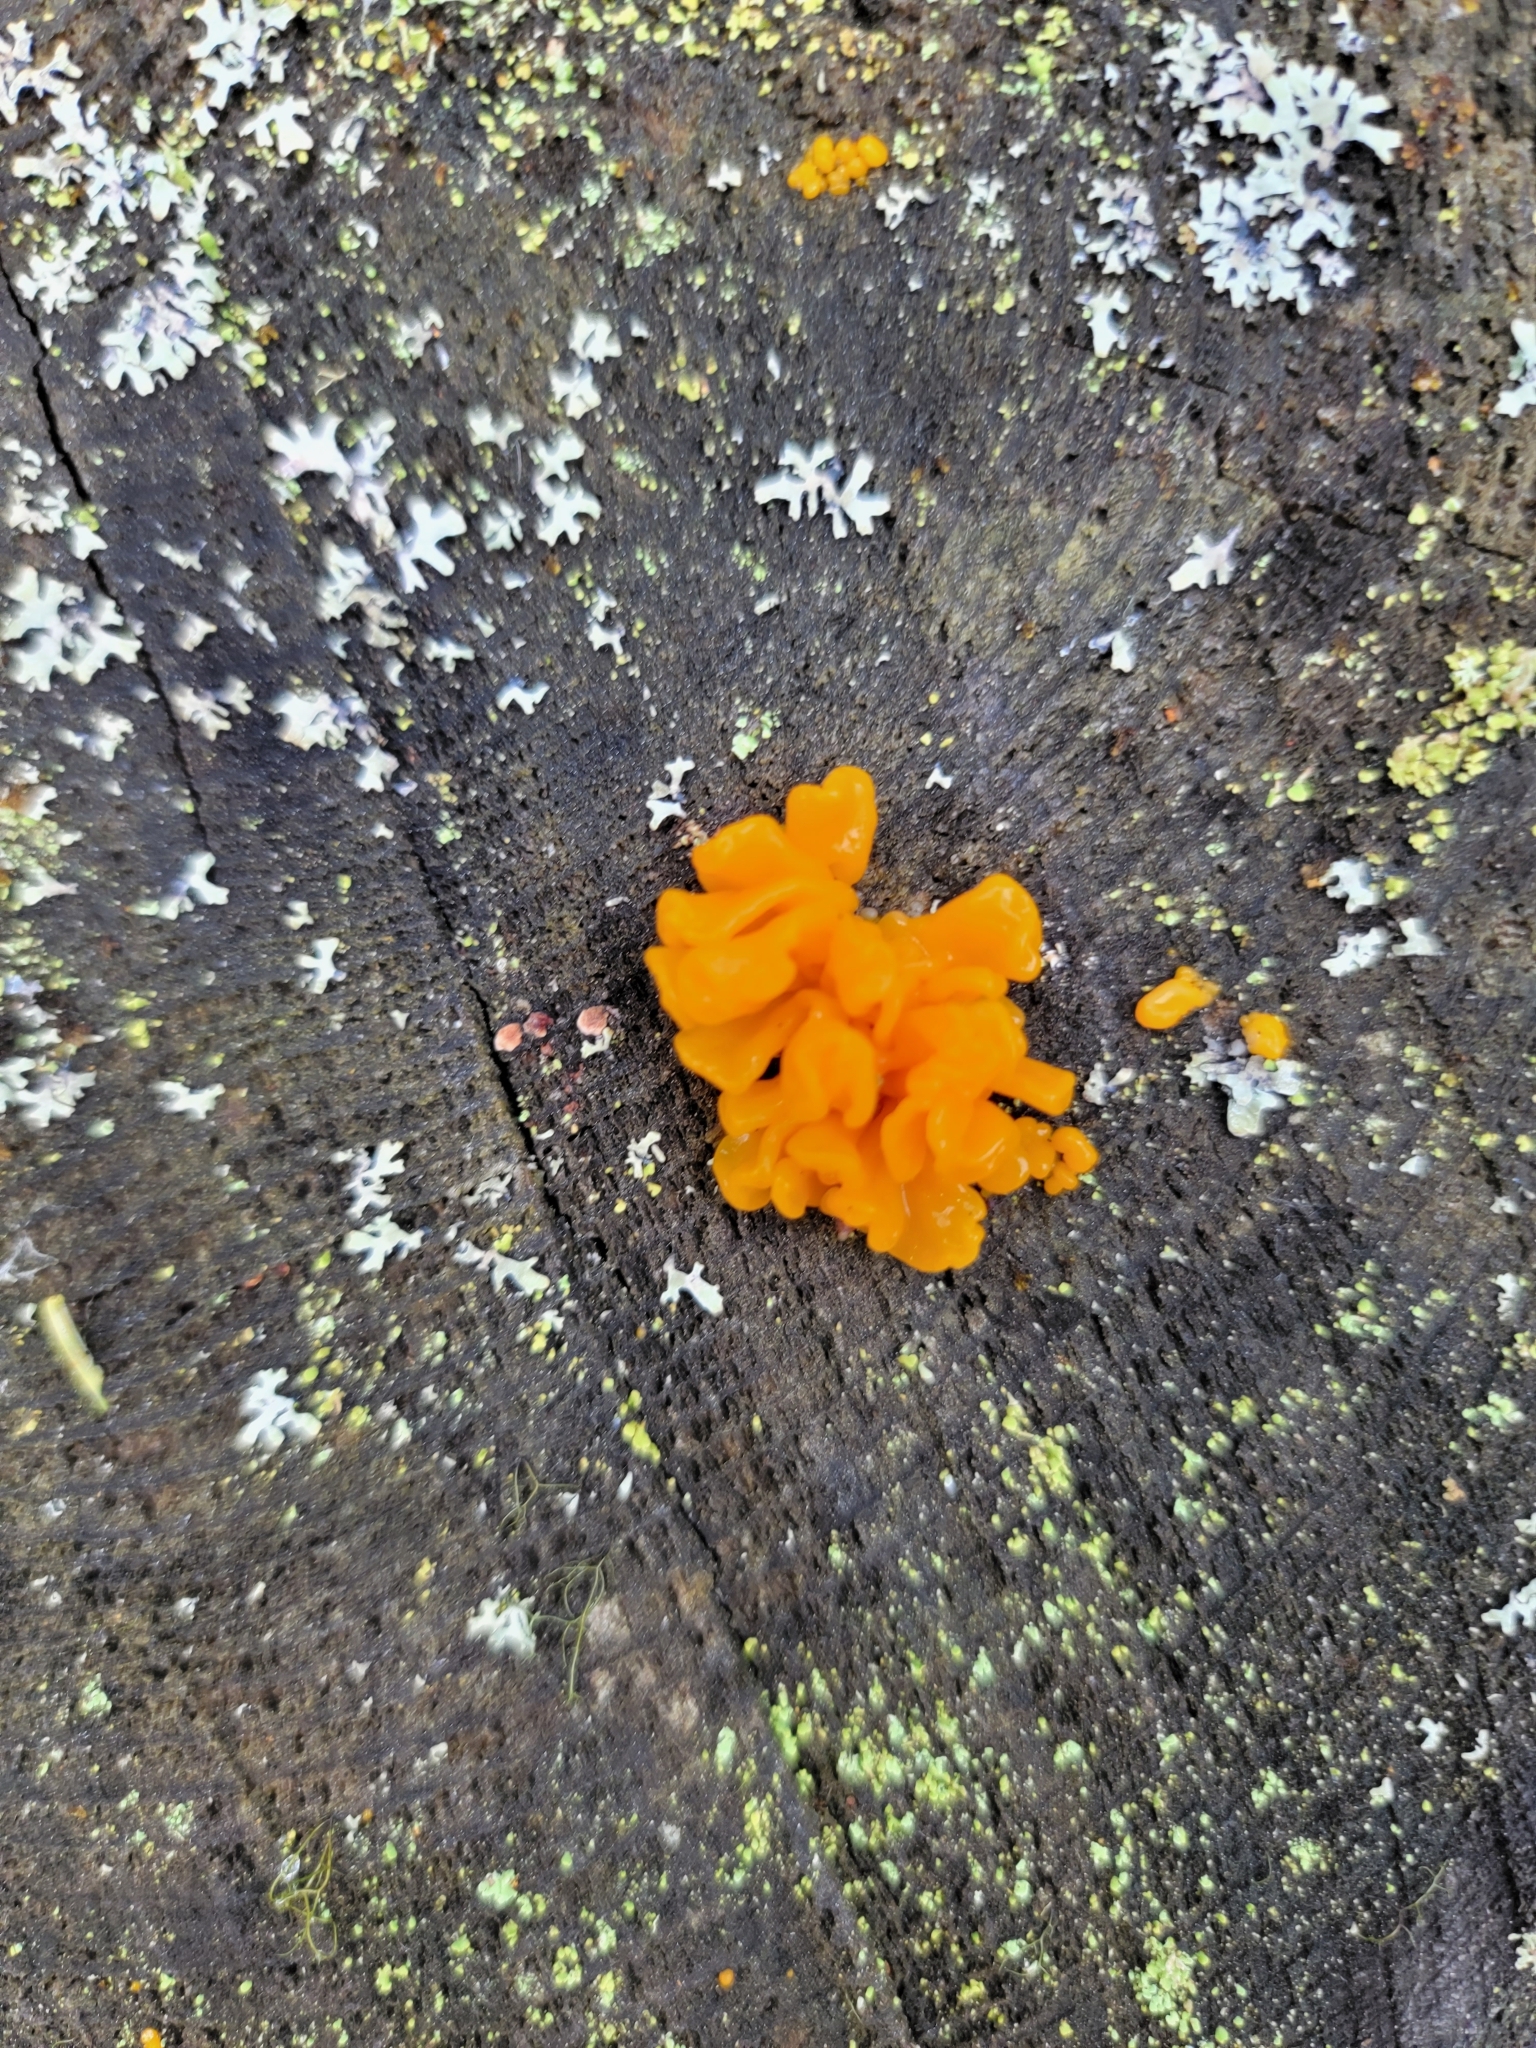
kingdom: Fungi
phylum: Basidiomycota
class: Dacrymycetes
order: Dacrymycetales
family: Dacrymycetaceae
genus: Dacrymyces
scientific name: Dacrymyces chrysospermus
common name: Orange jelly spot
